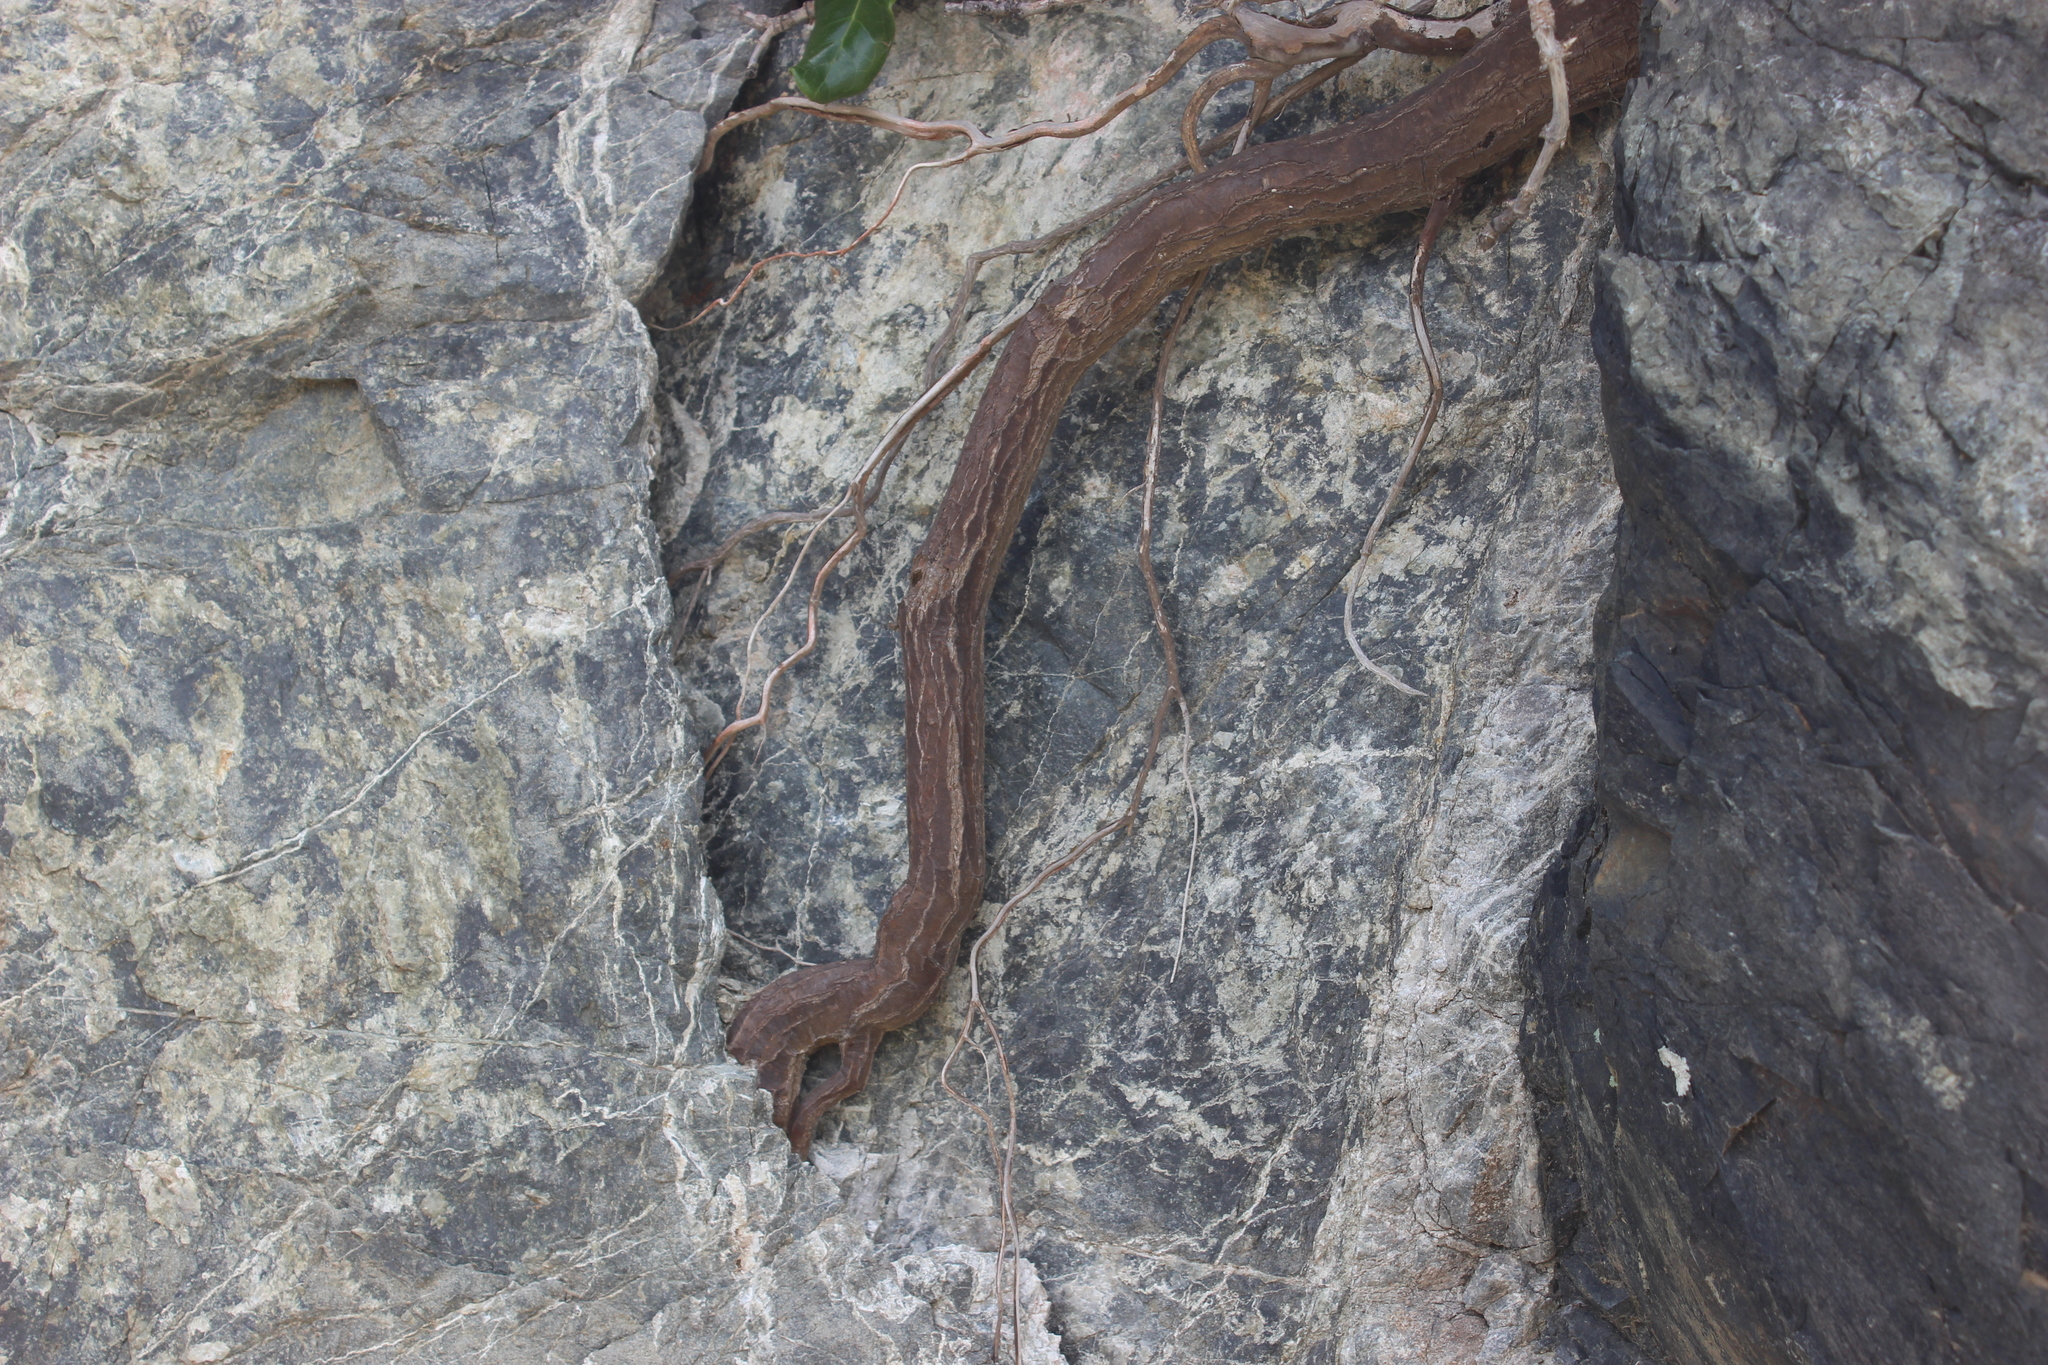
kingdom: Plantae
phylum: Tracheophyta
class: Magnoliopsida
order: Gentianales
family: Rubiaceae
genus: Coprosma
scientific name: Coprosma repens
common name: Tree bedstraw
